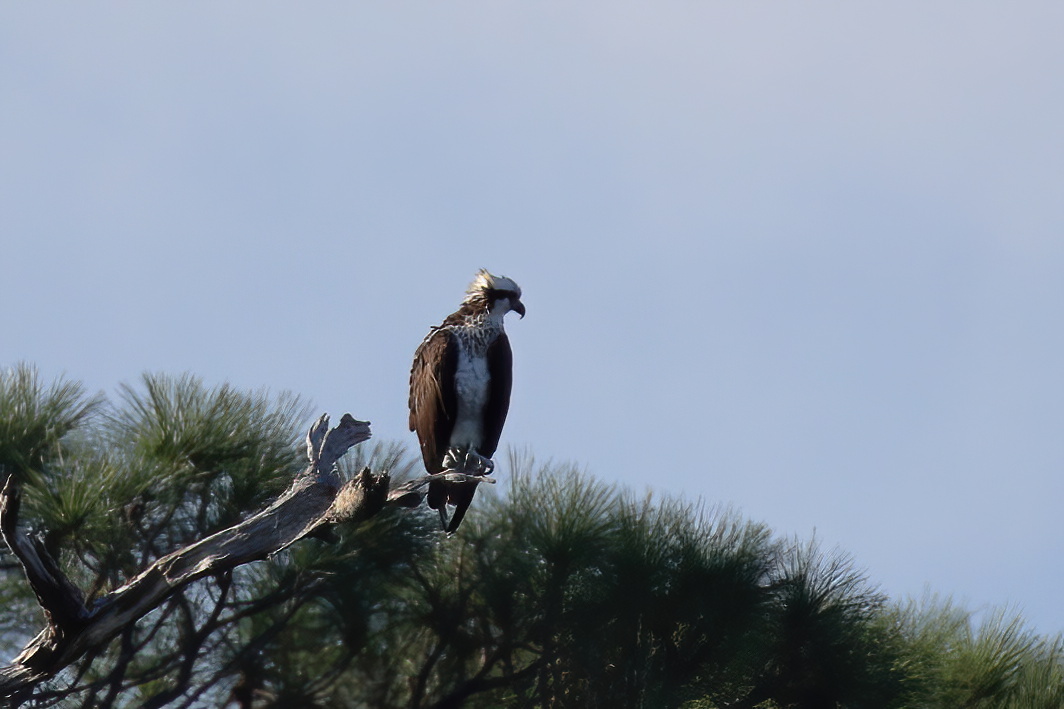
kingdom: Animalia
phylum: Chordata
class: Aves
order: Accipitriformes
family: Pandionidae
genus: Pandion
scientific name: Pandion haliaetus
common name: Osprey
